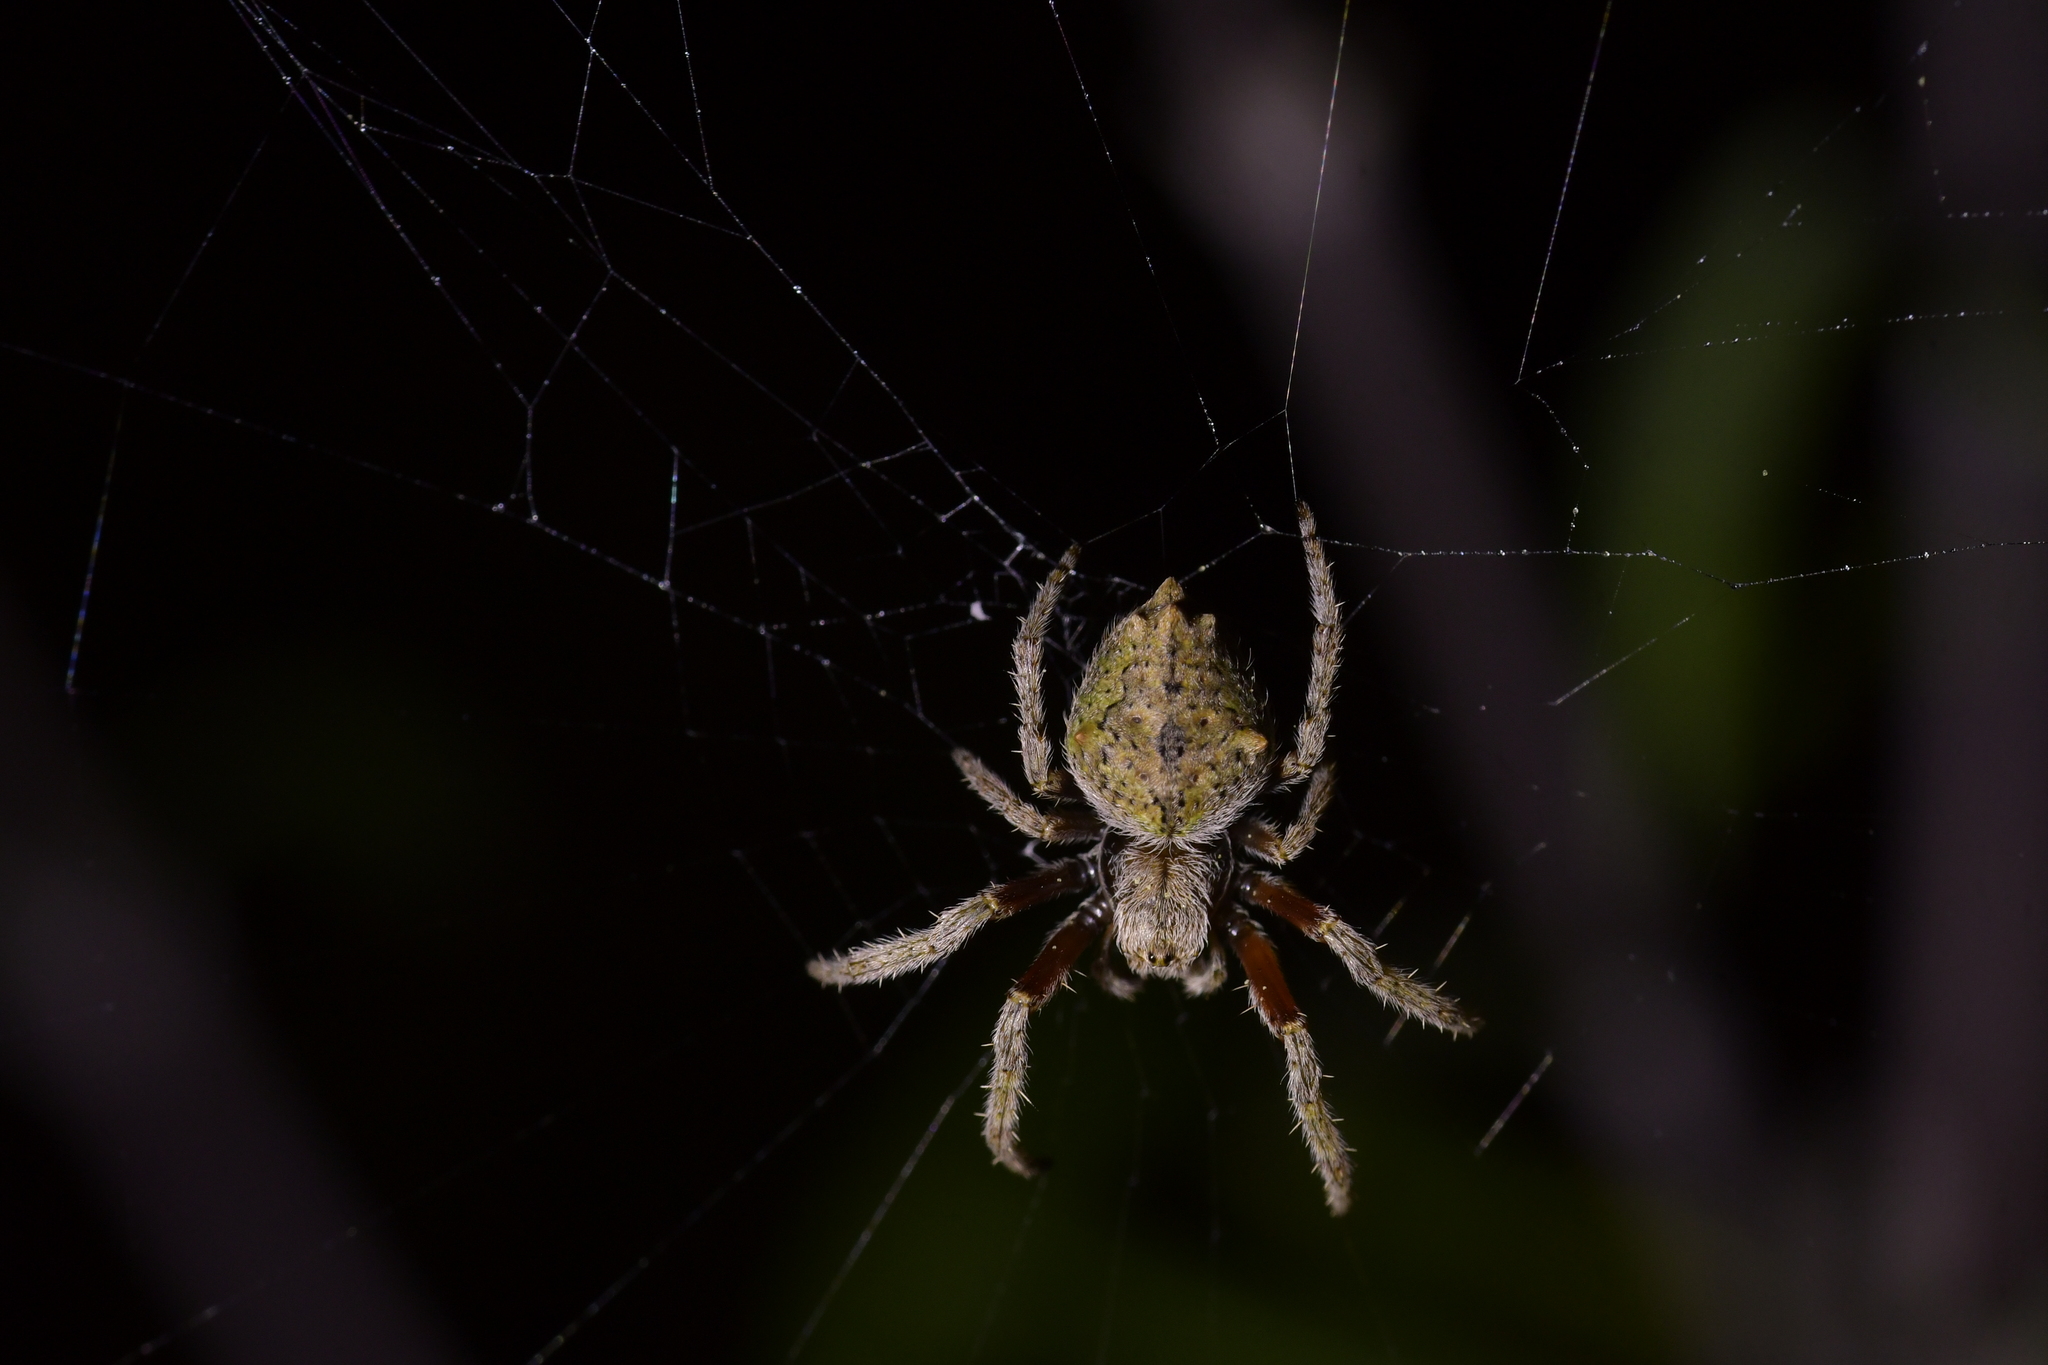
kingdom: Animalia
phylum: Arthropoda
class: Arachnida
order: Araneae
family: Araneidae
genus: Eriophora
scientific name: Eriophora pustulosa
